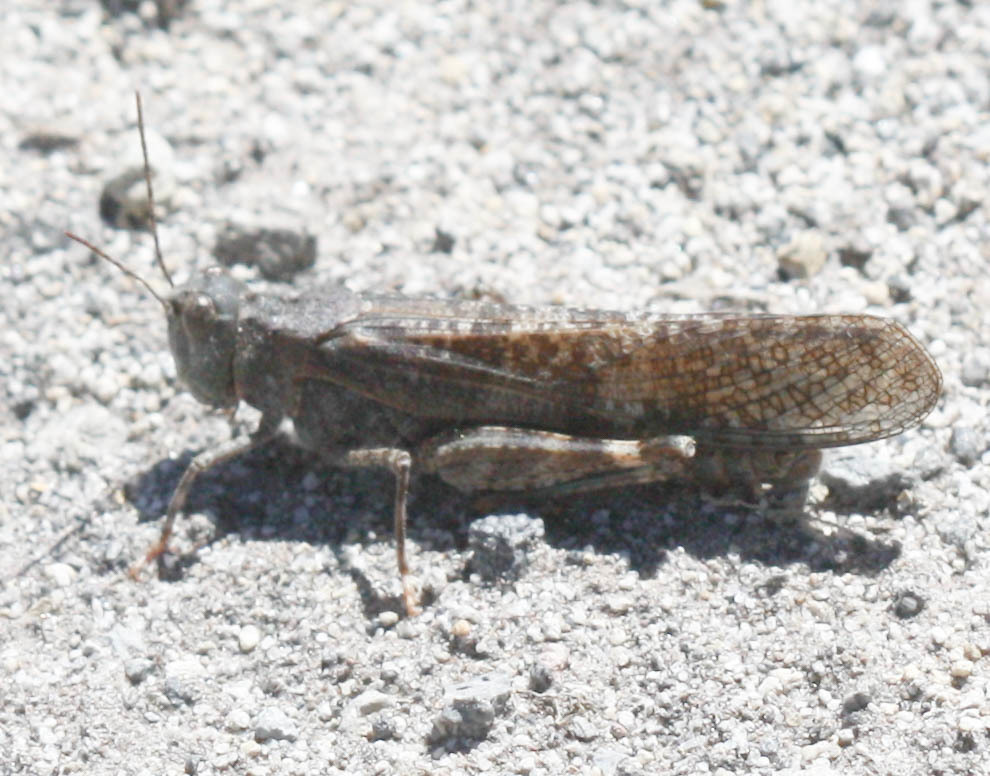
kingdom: Animalia
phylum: Arthropoda
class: Insecta
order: Orthoptera
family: Acrididae
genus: Circotettix
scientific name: Circotettix undulatus
